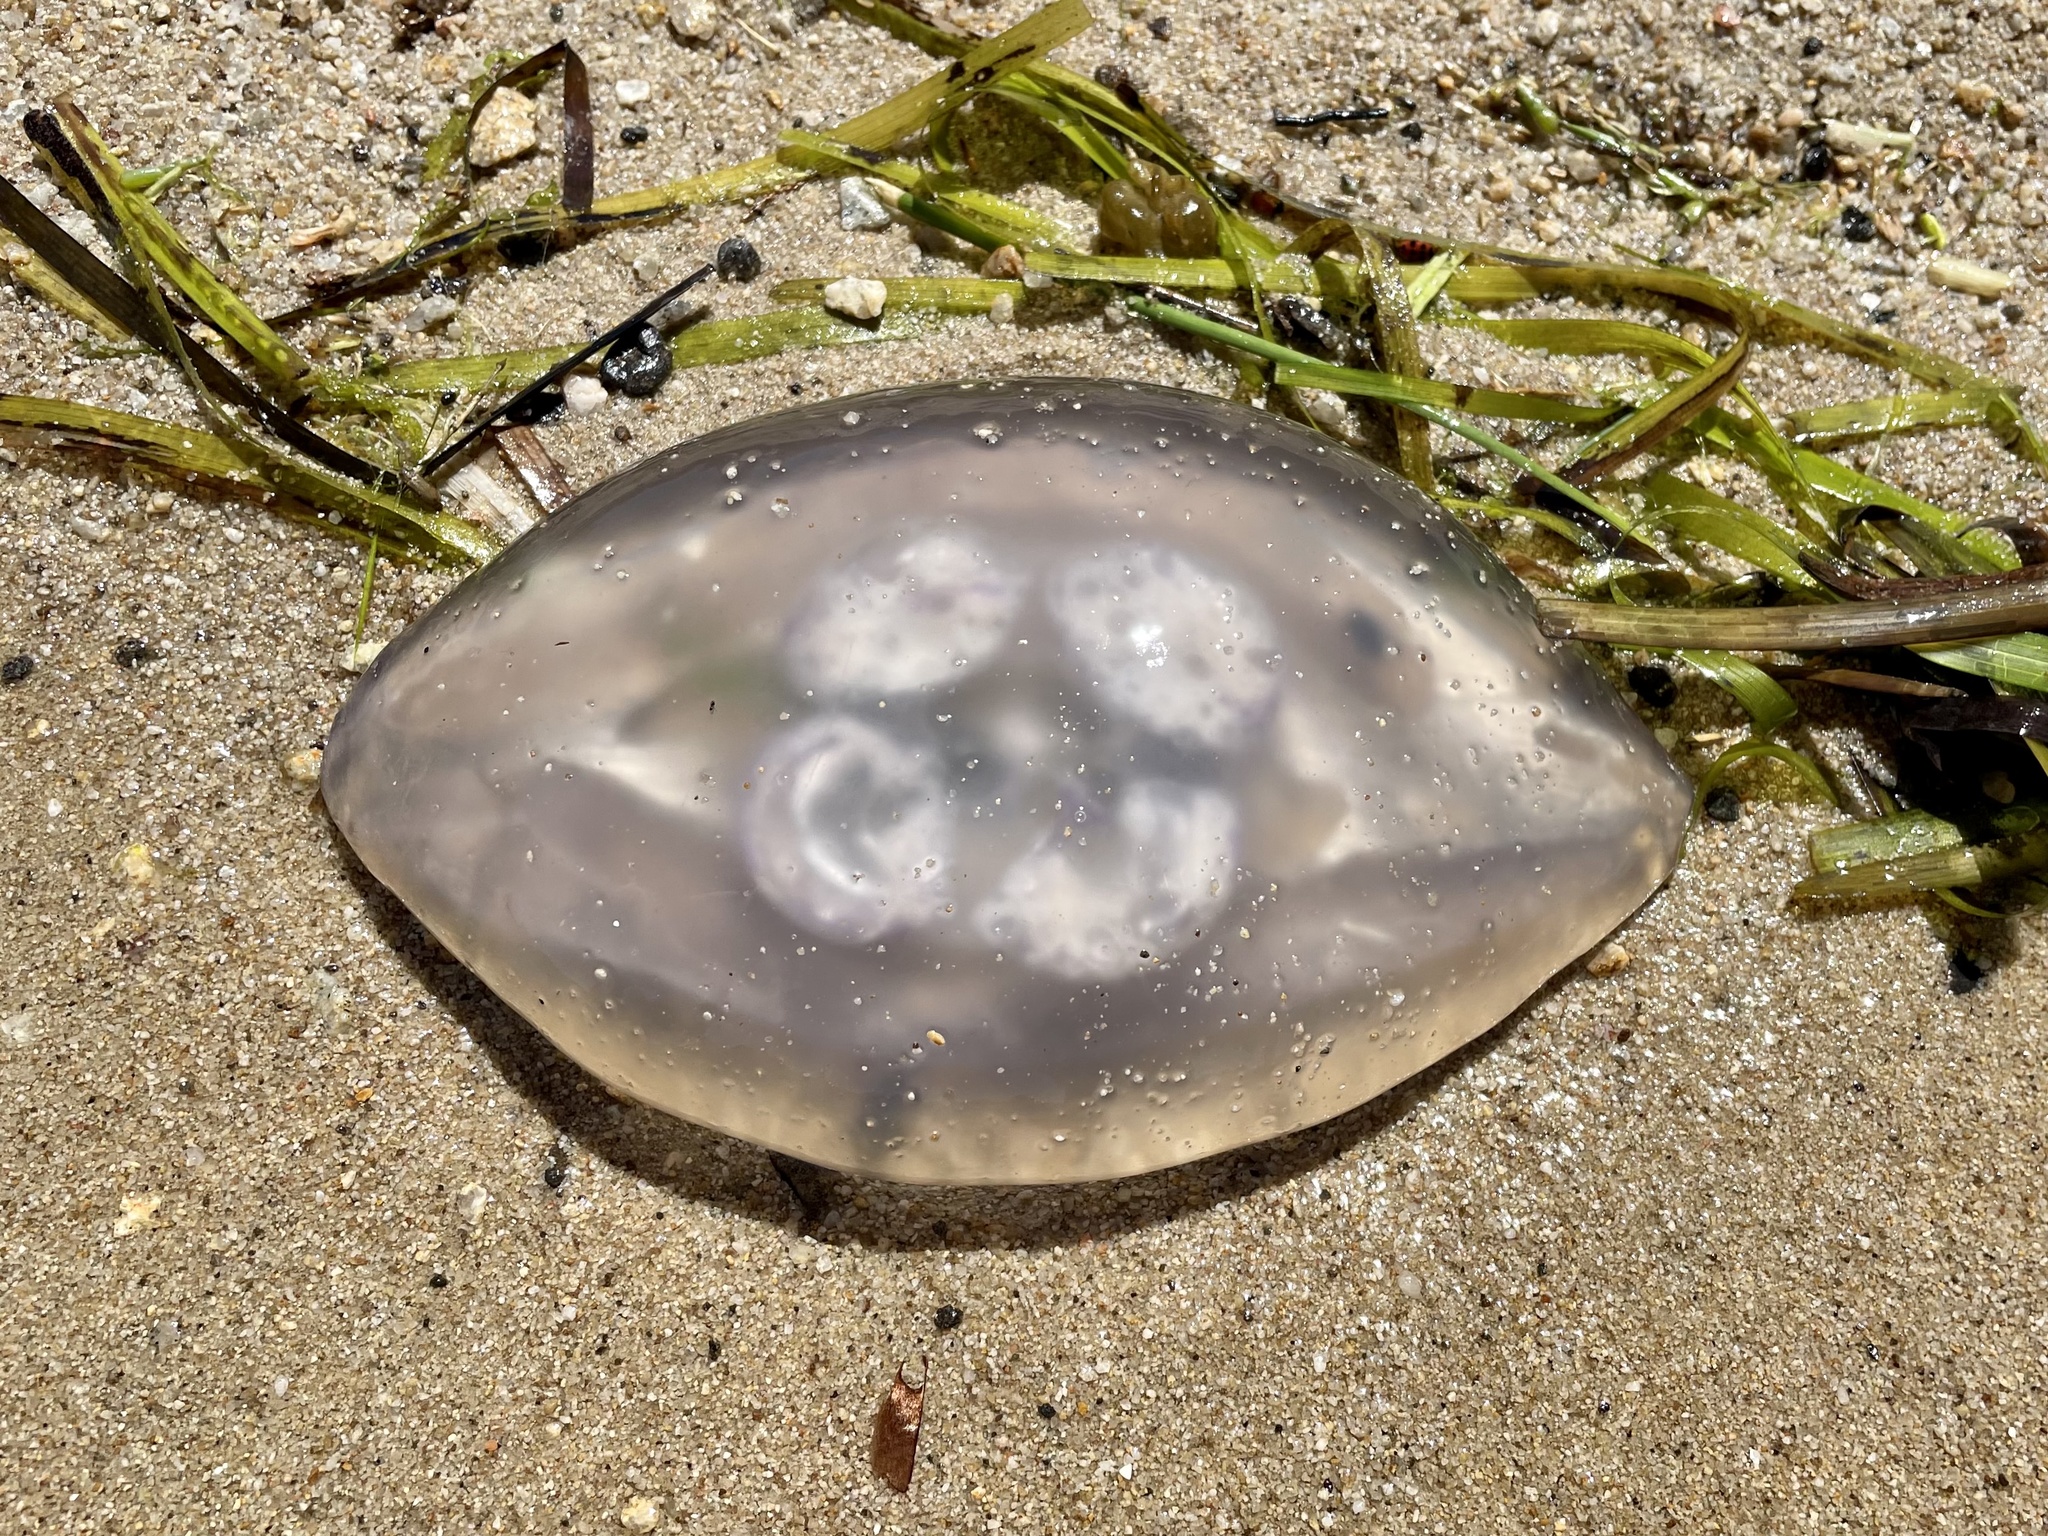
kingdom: Animalia
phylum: Cnidaria
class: Scyphozoa
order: Semaeostomeae
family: Ulmaridae
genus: Aurelia
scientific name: Aurelia labiata
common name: Pacific moon jelly
